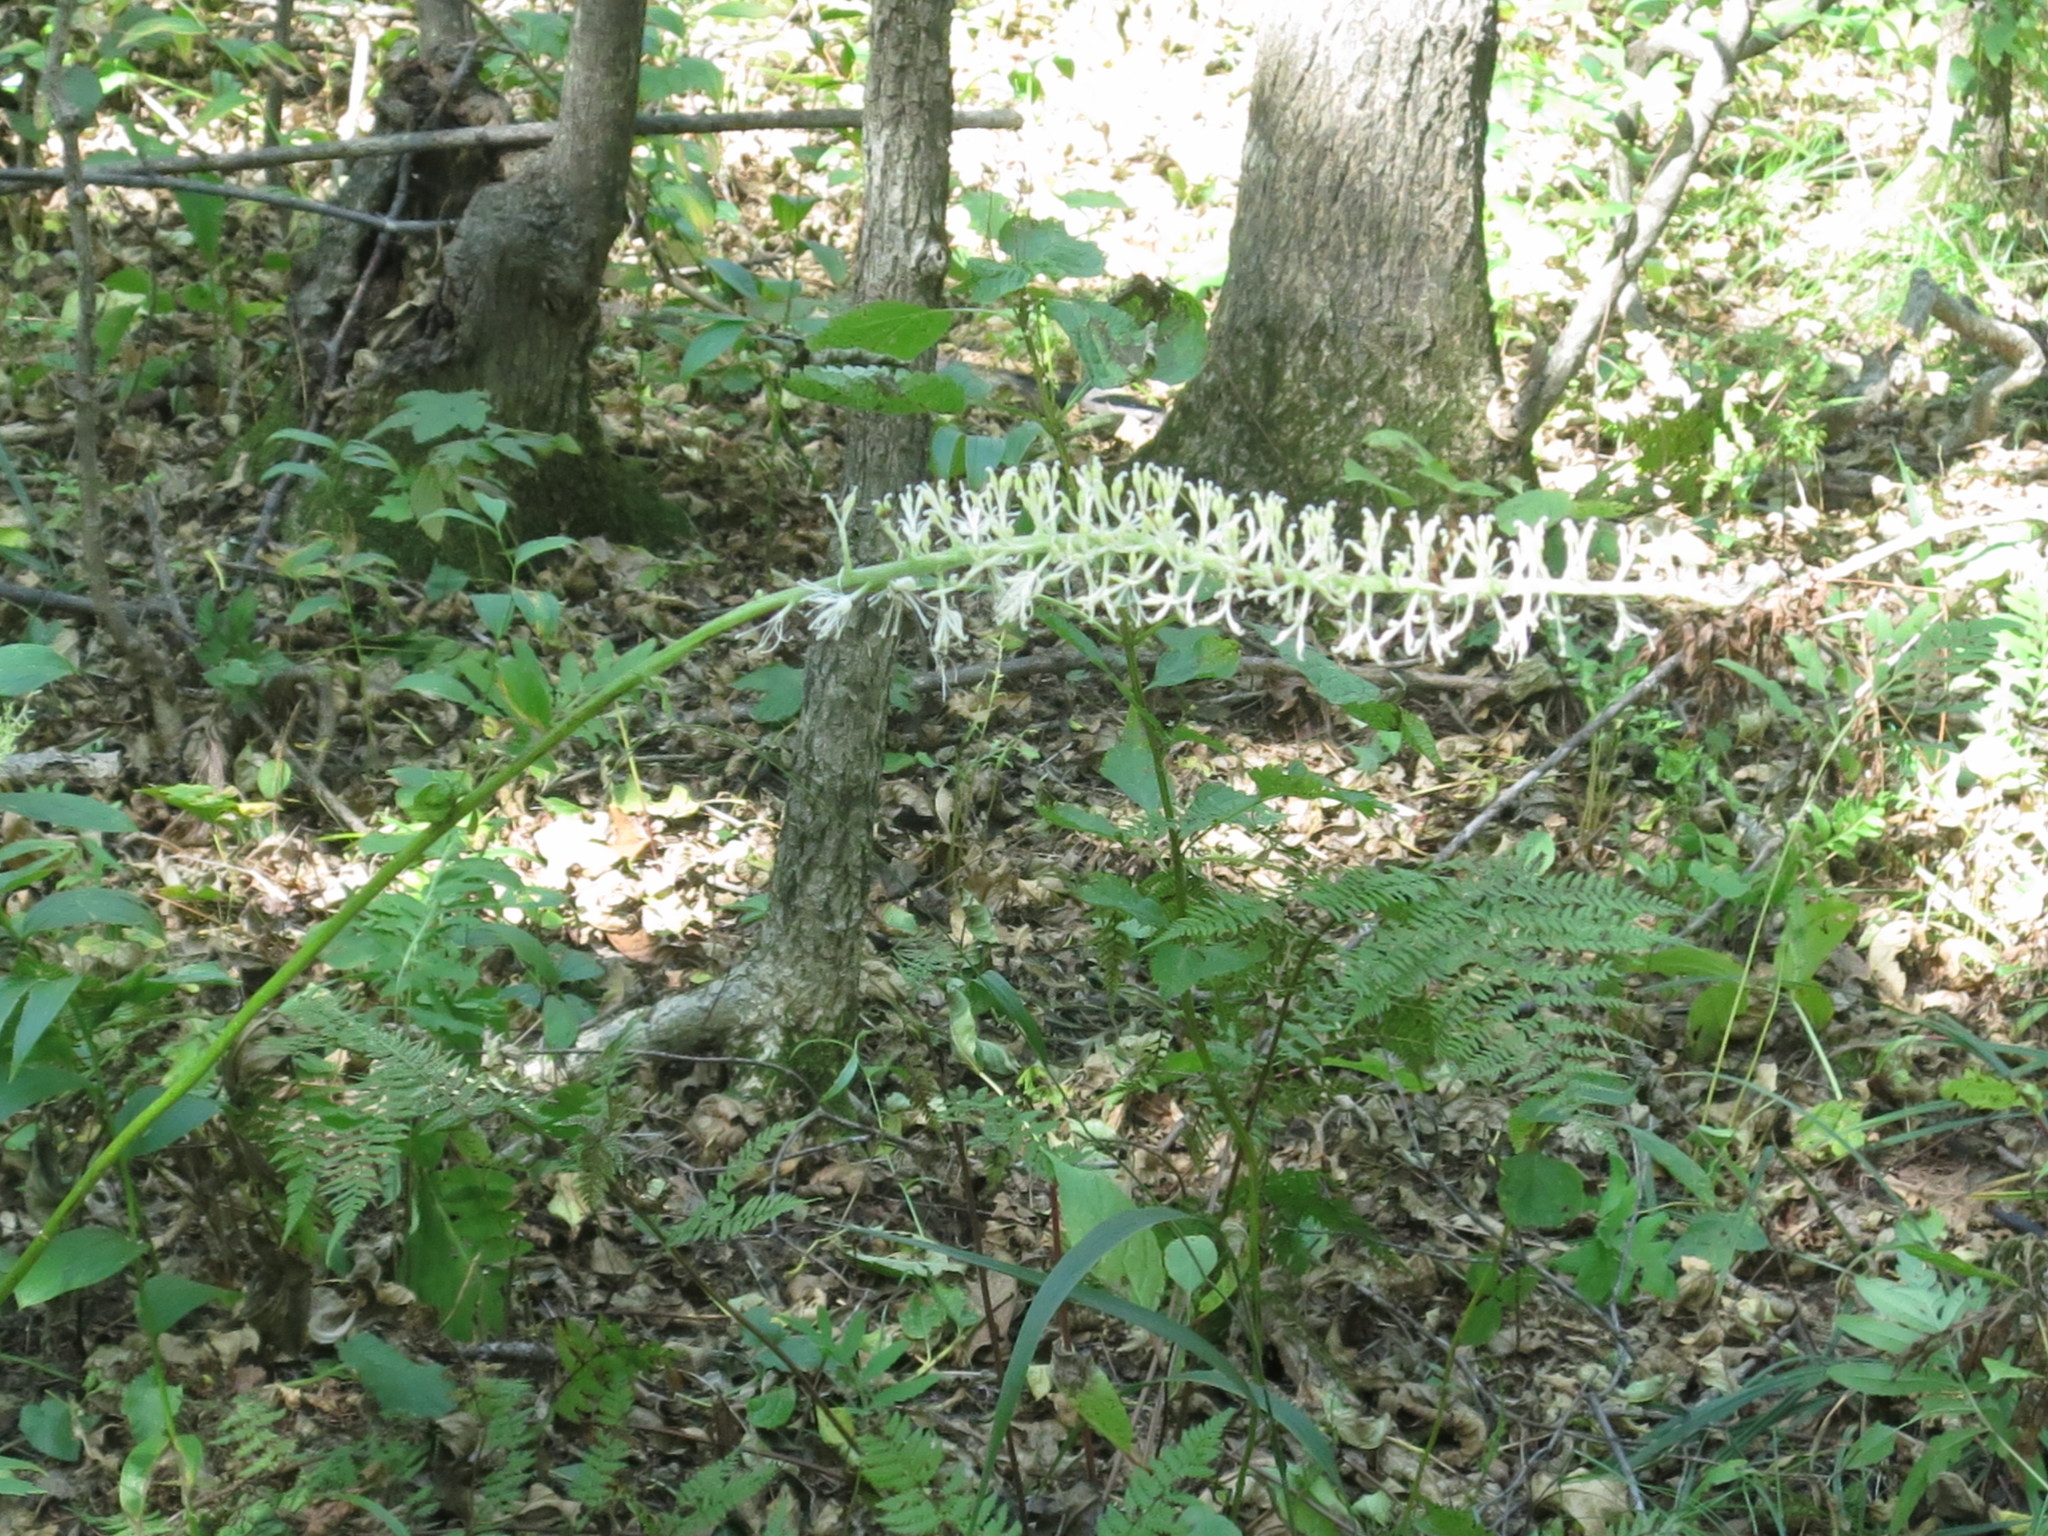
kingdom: Plantae
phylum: Tracheophyta
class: Magnoliopsida
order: Ranunculales
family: Ranunculaceae
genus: Actaea
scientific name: Actaea asiatica
